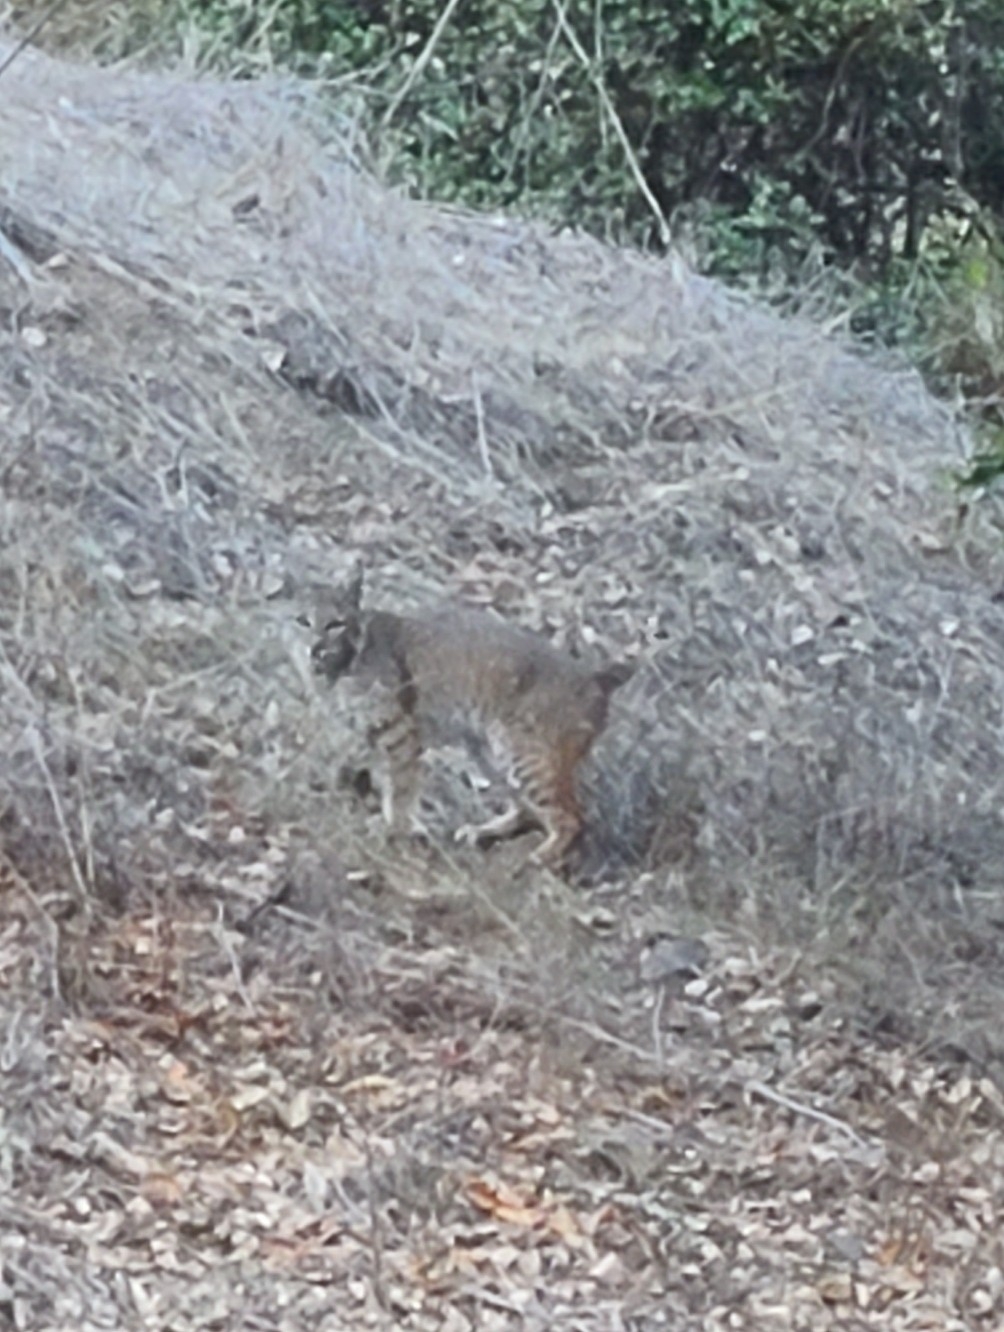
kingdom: Animalia
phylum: Chordata
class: Mammalia
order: Carnivora
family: Felidae
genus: Lynx
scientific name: Lynx rufus
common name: Bobcat
